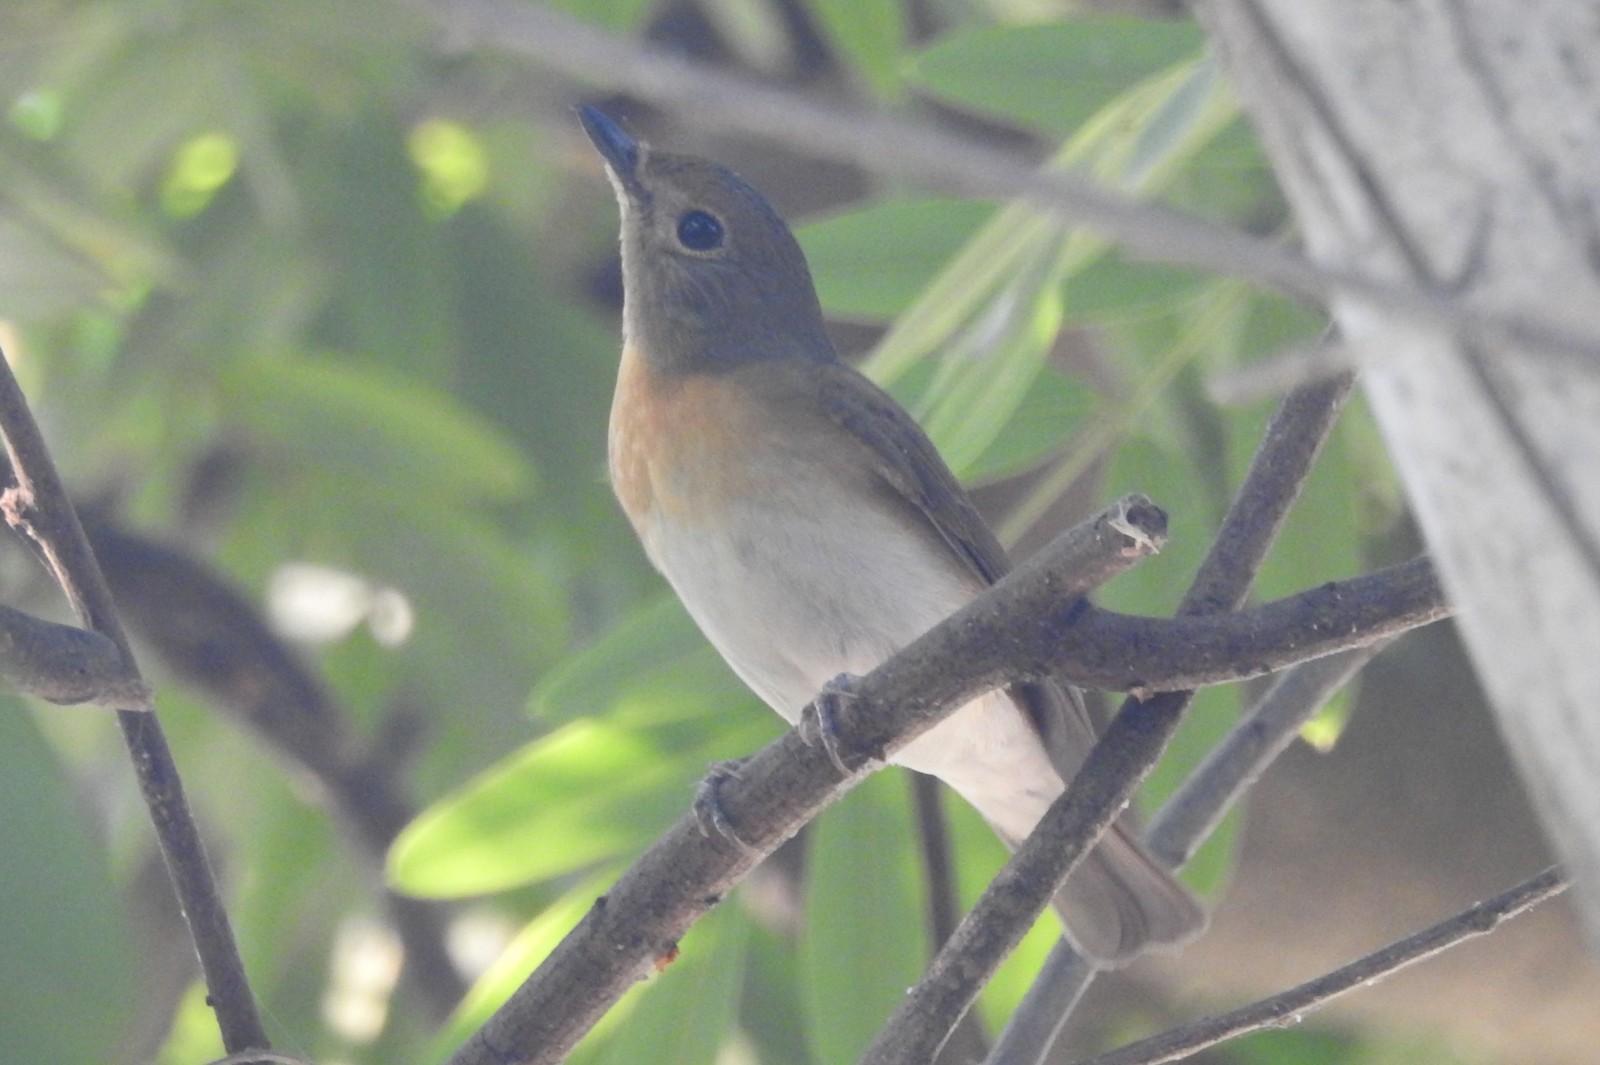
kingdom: Animalia
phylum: Chordata
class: Aves
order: Passeriformes
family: Muscicapidae
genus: Cyornis
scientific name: Cyornis rubeculoides
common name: Blue-throated blue flycatcher
